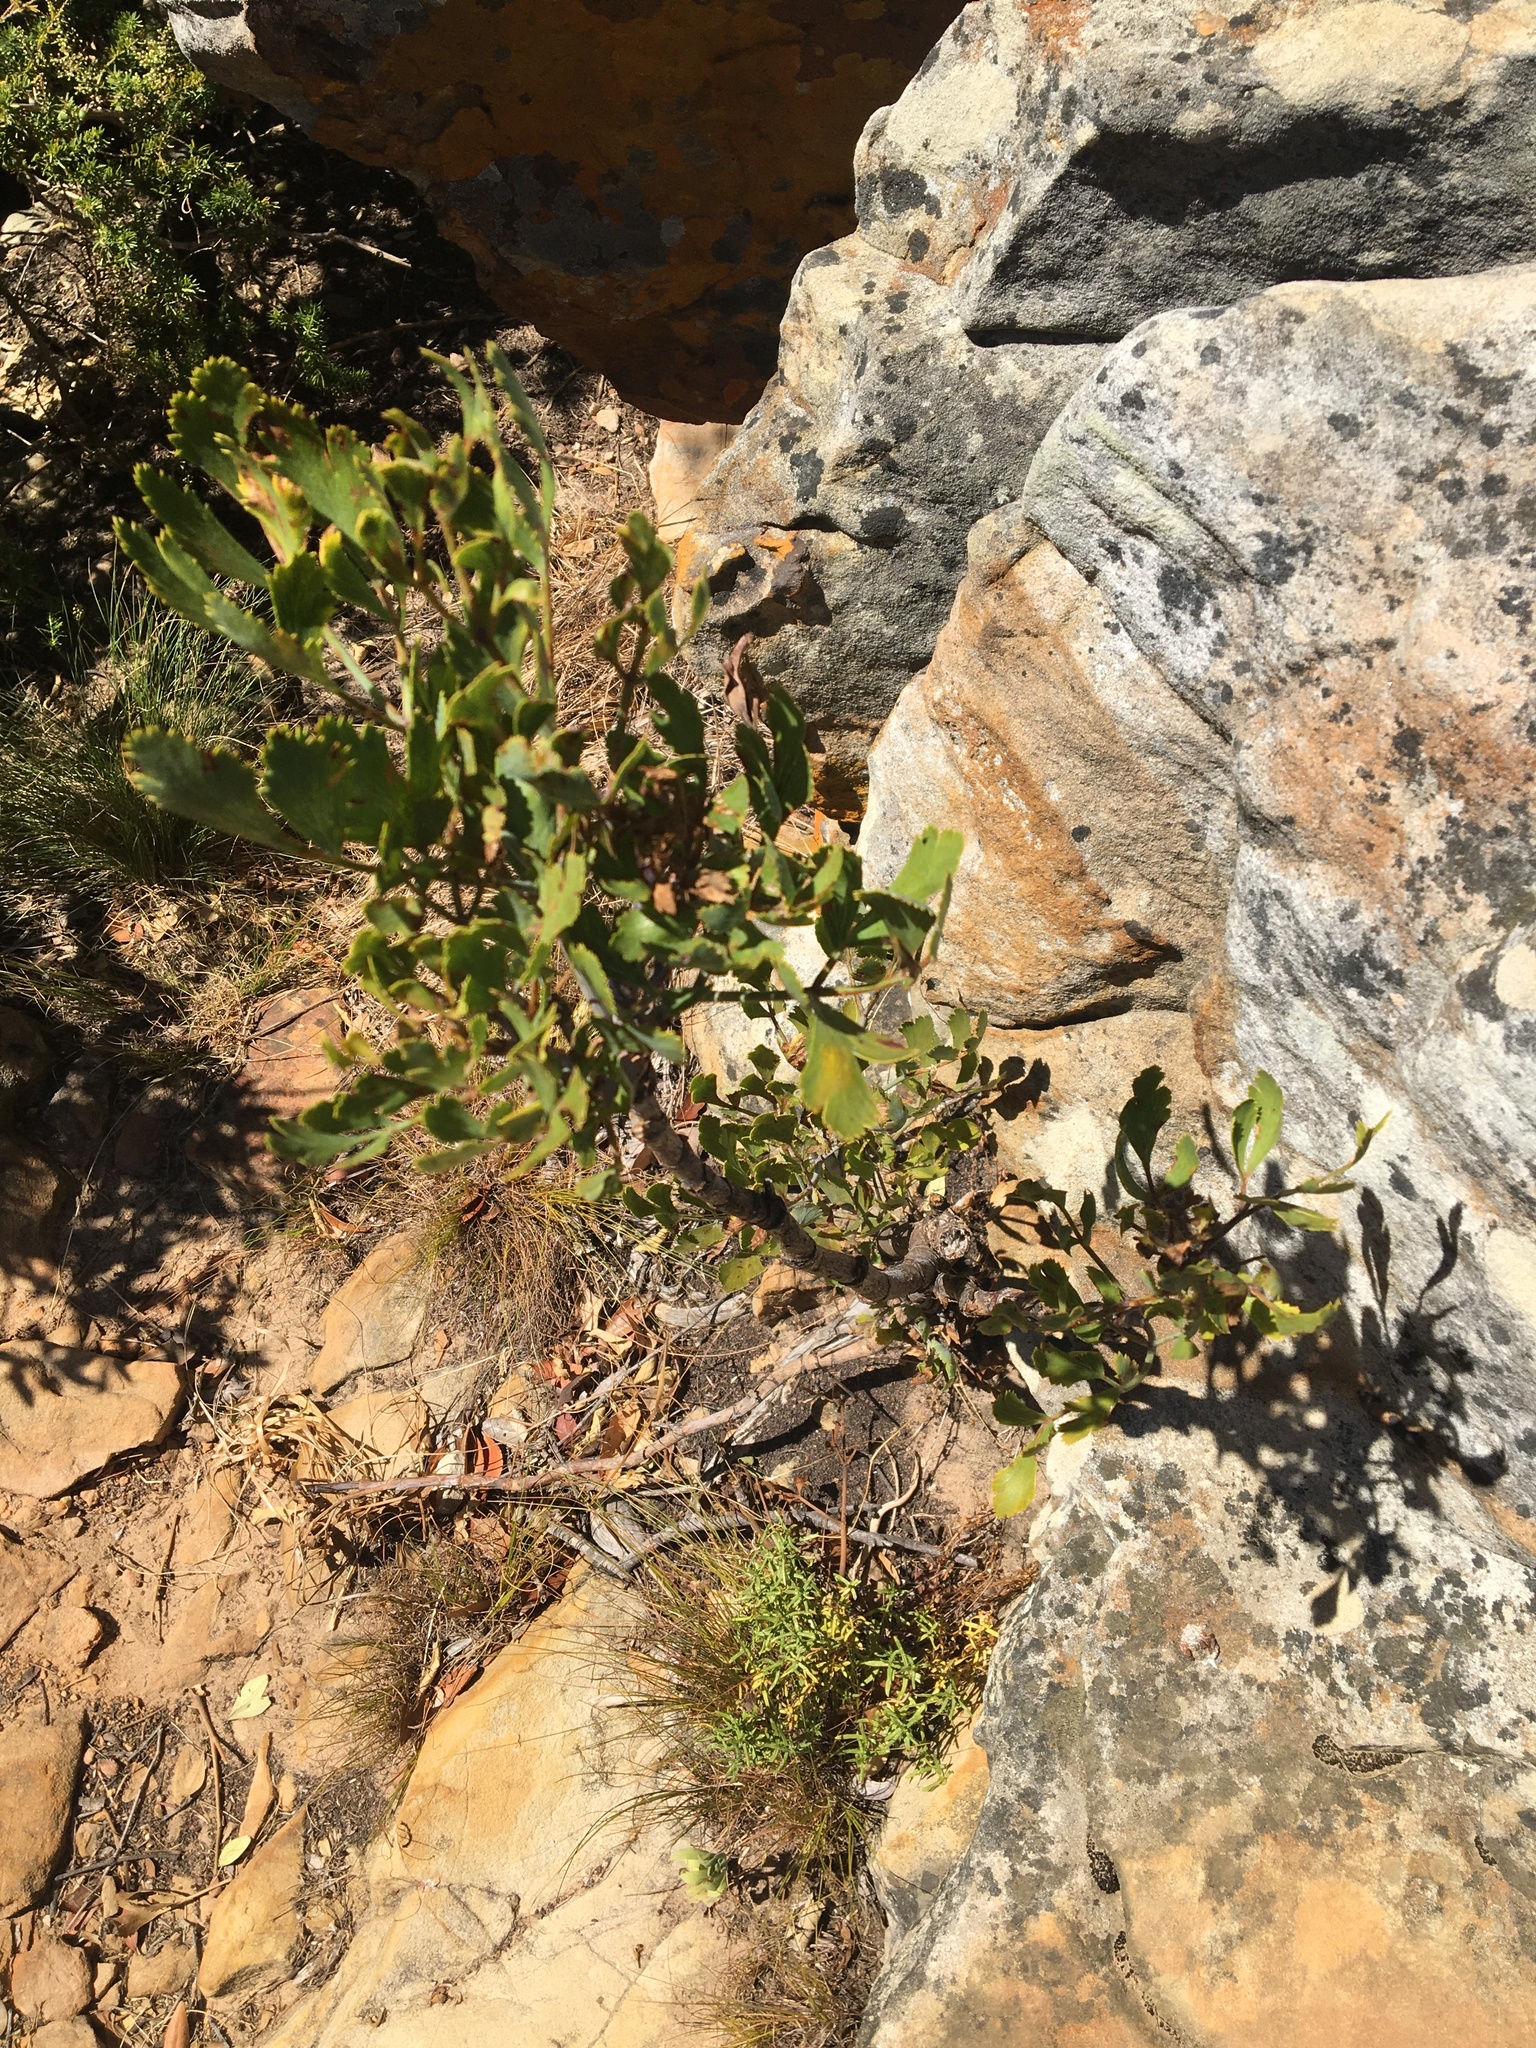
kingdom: Plantae
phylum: Tracheophyta
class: Magnoliopsida
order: Apiales
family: Apiaceae
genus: Notobubon
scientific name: Notobubon galbanum
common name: Blisterbush
